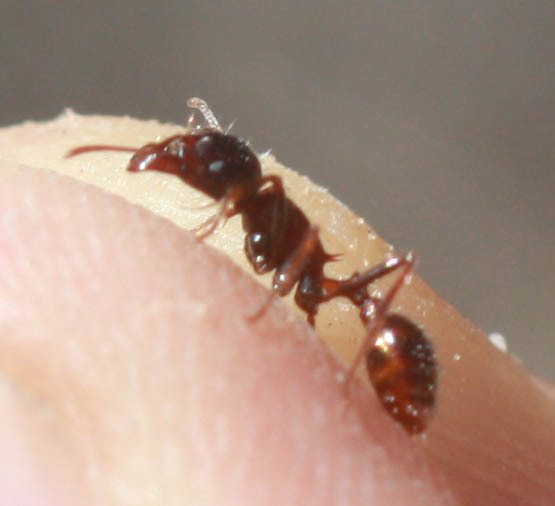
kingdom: Animalia
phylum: Arthropoda
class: Insecta
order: Hymenoptera
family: Formicidae
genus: Pogonomyrmex
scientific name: Pogonomyrmex rugosus
